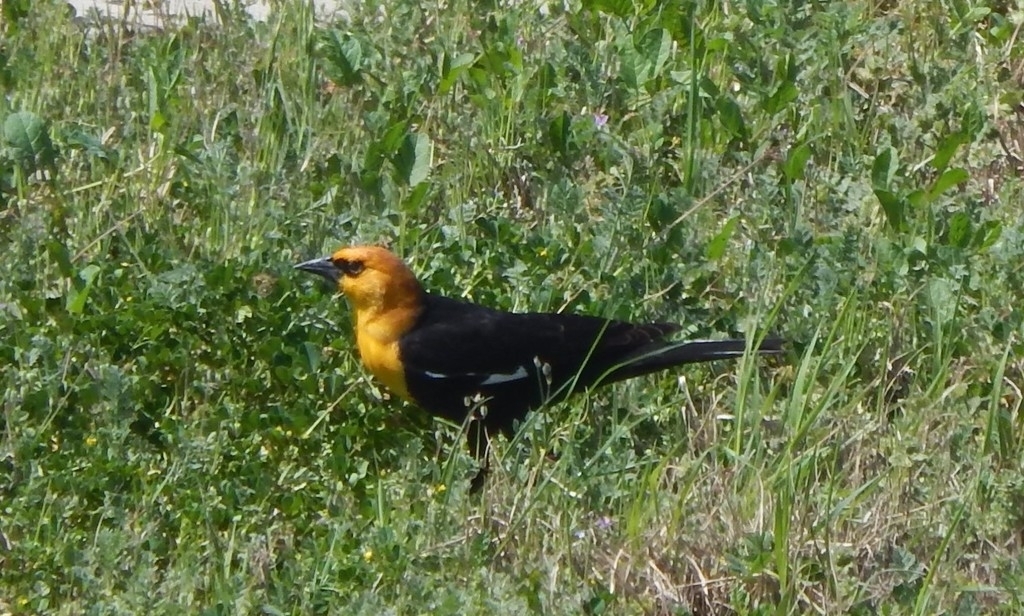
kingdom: Animalia
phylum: Chordata
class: Aves
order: Passeriformes
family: Icteridae
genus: Xanthocephalus
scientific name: Xanthocephalus xanthocephalus
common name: Yellow-headed blackbird
